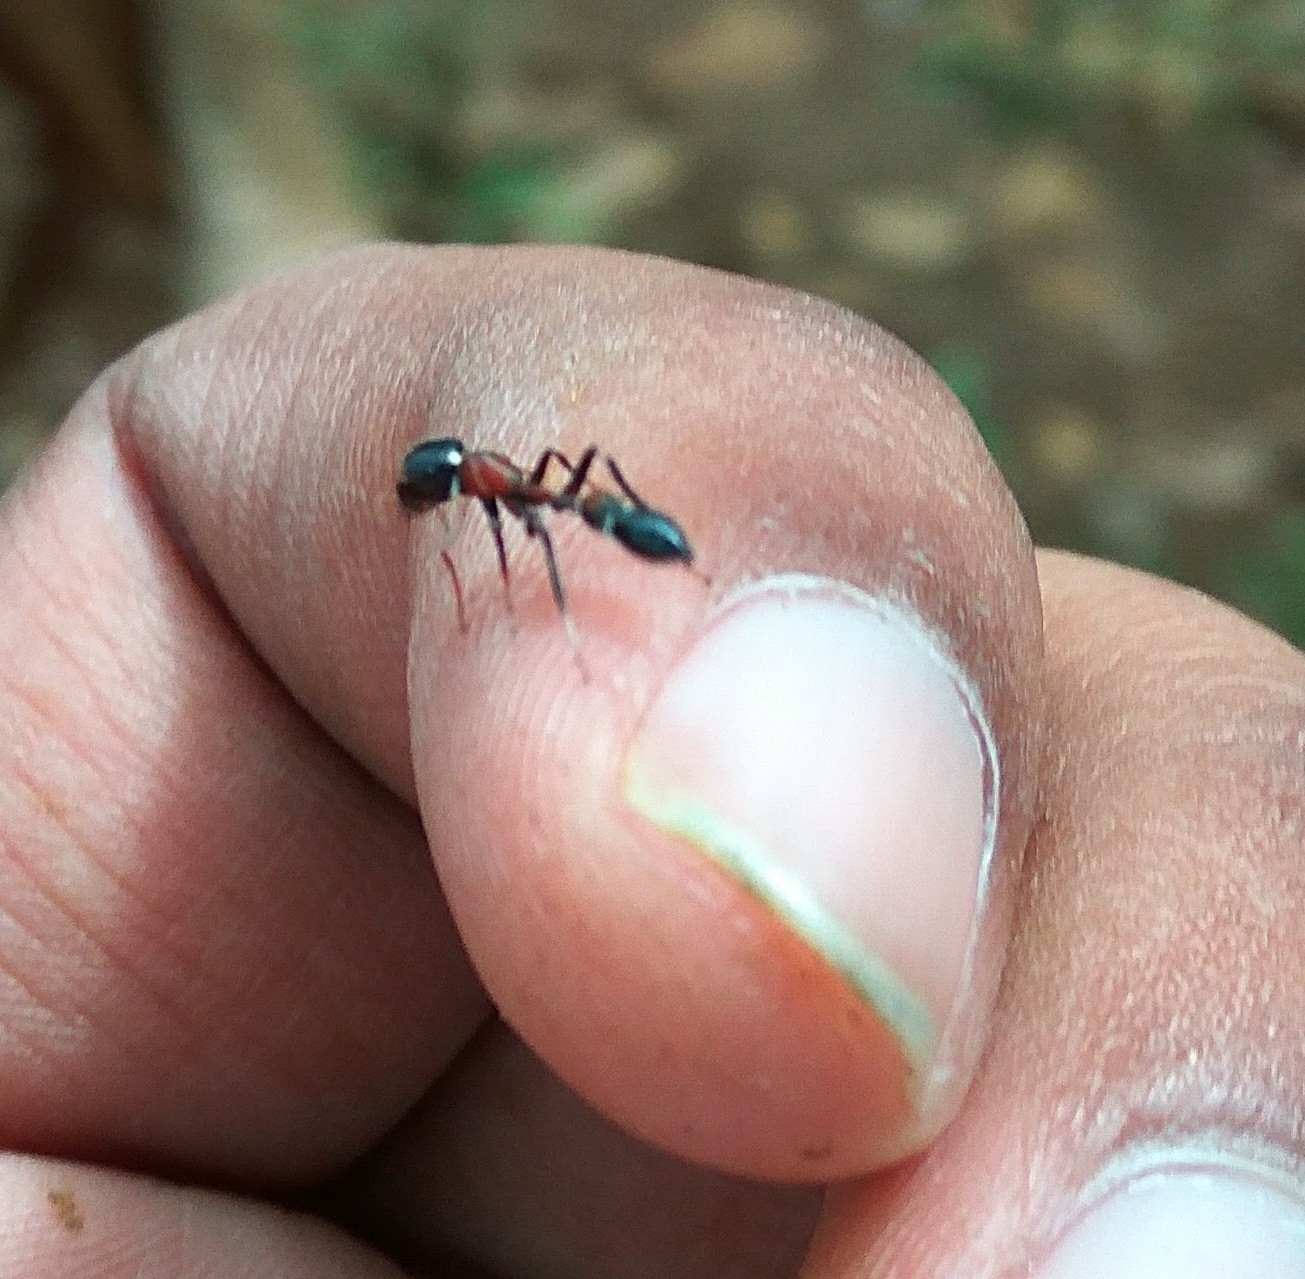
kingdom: Animalia
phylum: Arthropoda
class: Arachnida
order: Araneae
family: Salticidae
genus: Myrmarachne
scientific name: Myrmarachne melanocephala
